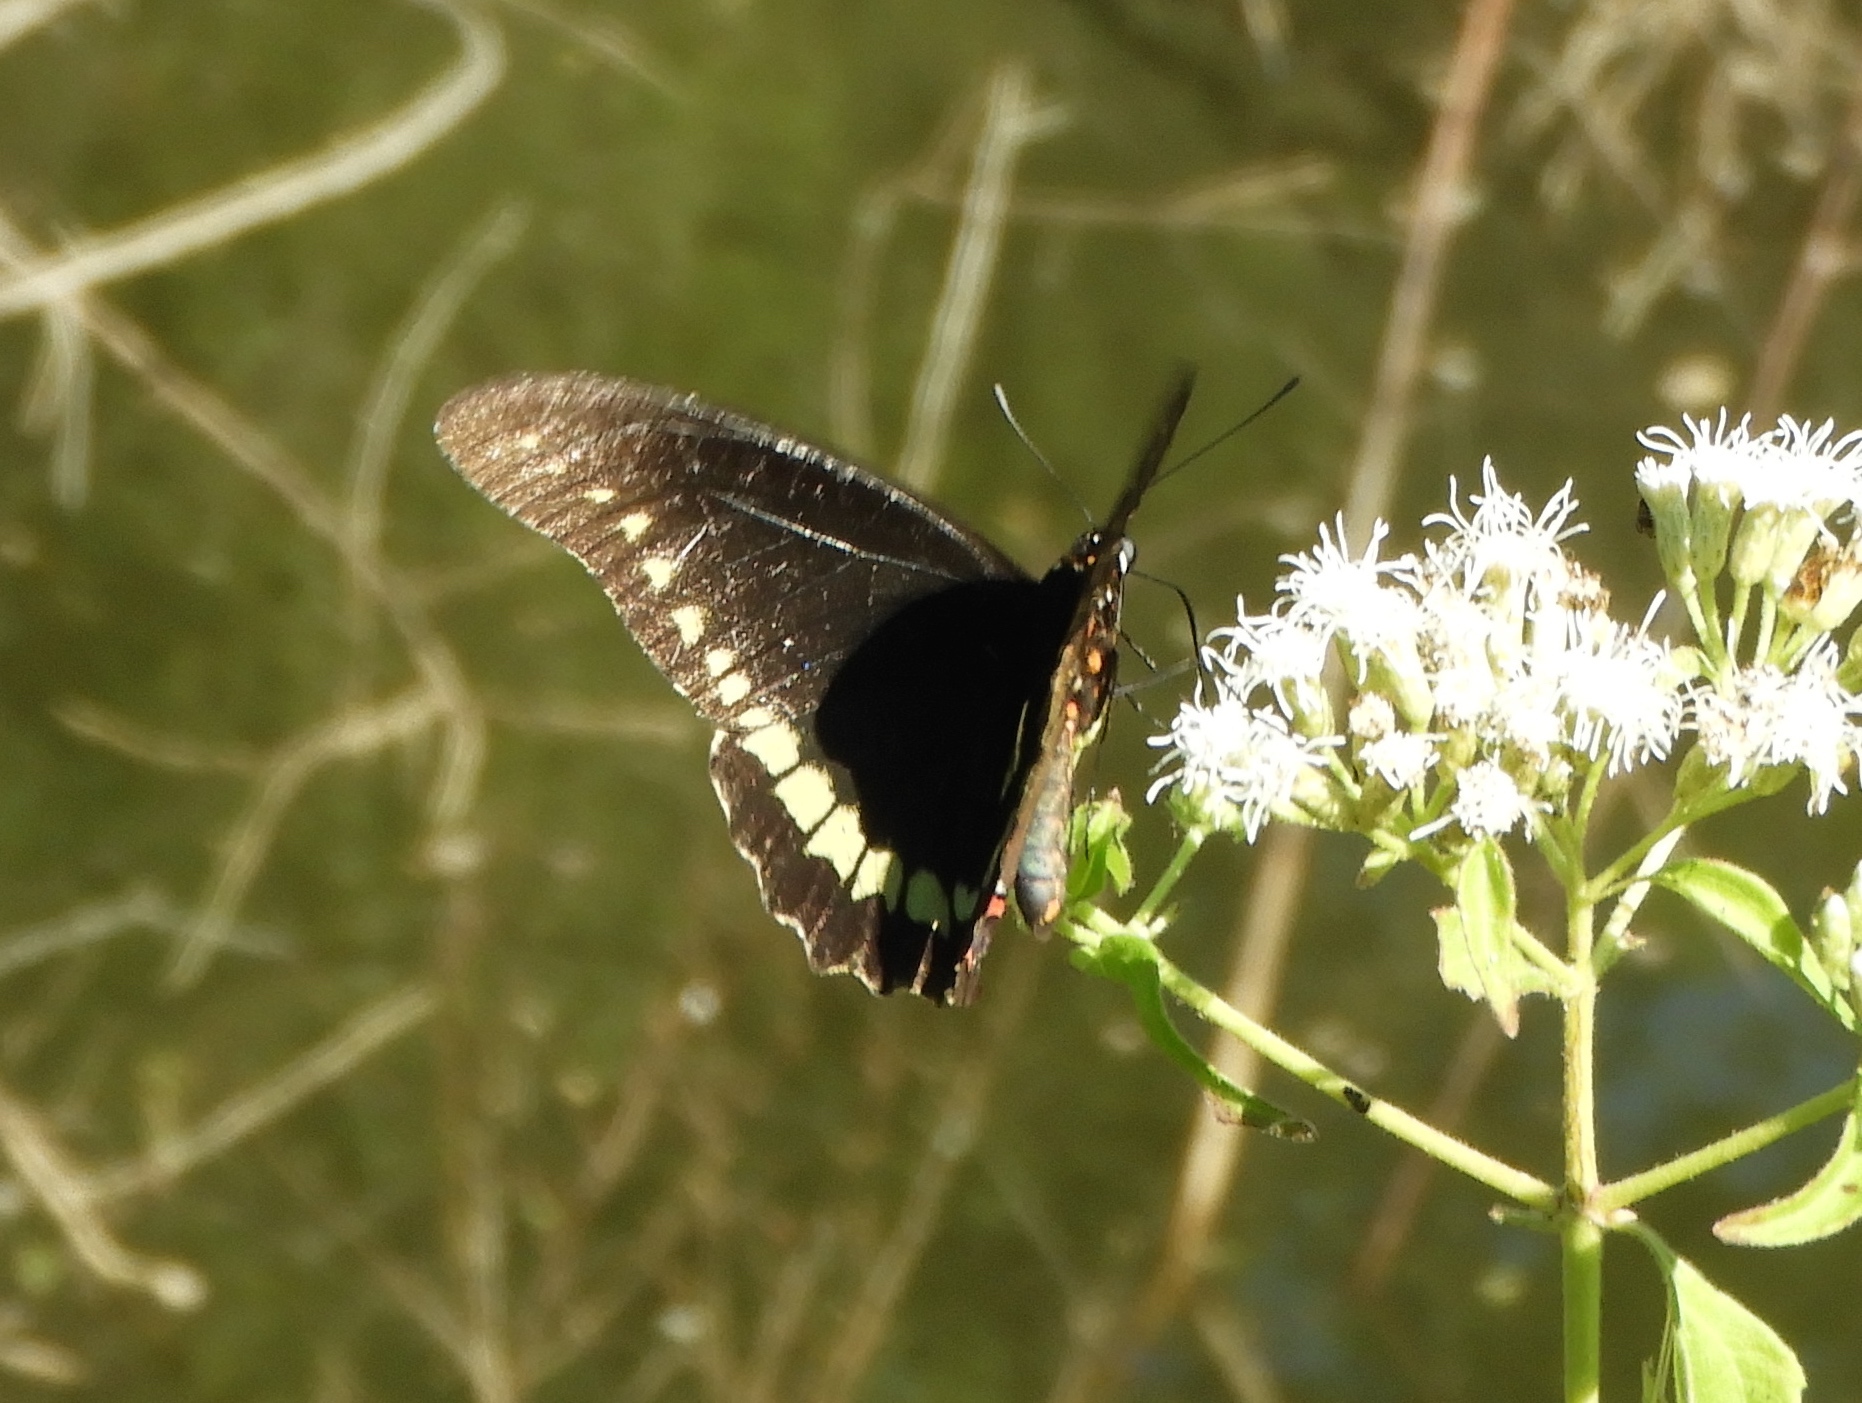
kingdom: Animalia
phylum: Arthropoda
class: Insecta
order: Lepidoptera
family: Papilionidae
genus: Battus
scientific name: Battus polydamas
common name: Polydamas swallowtail
